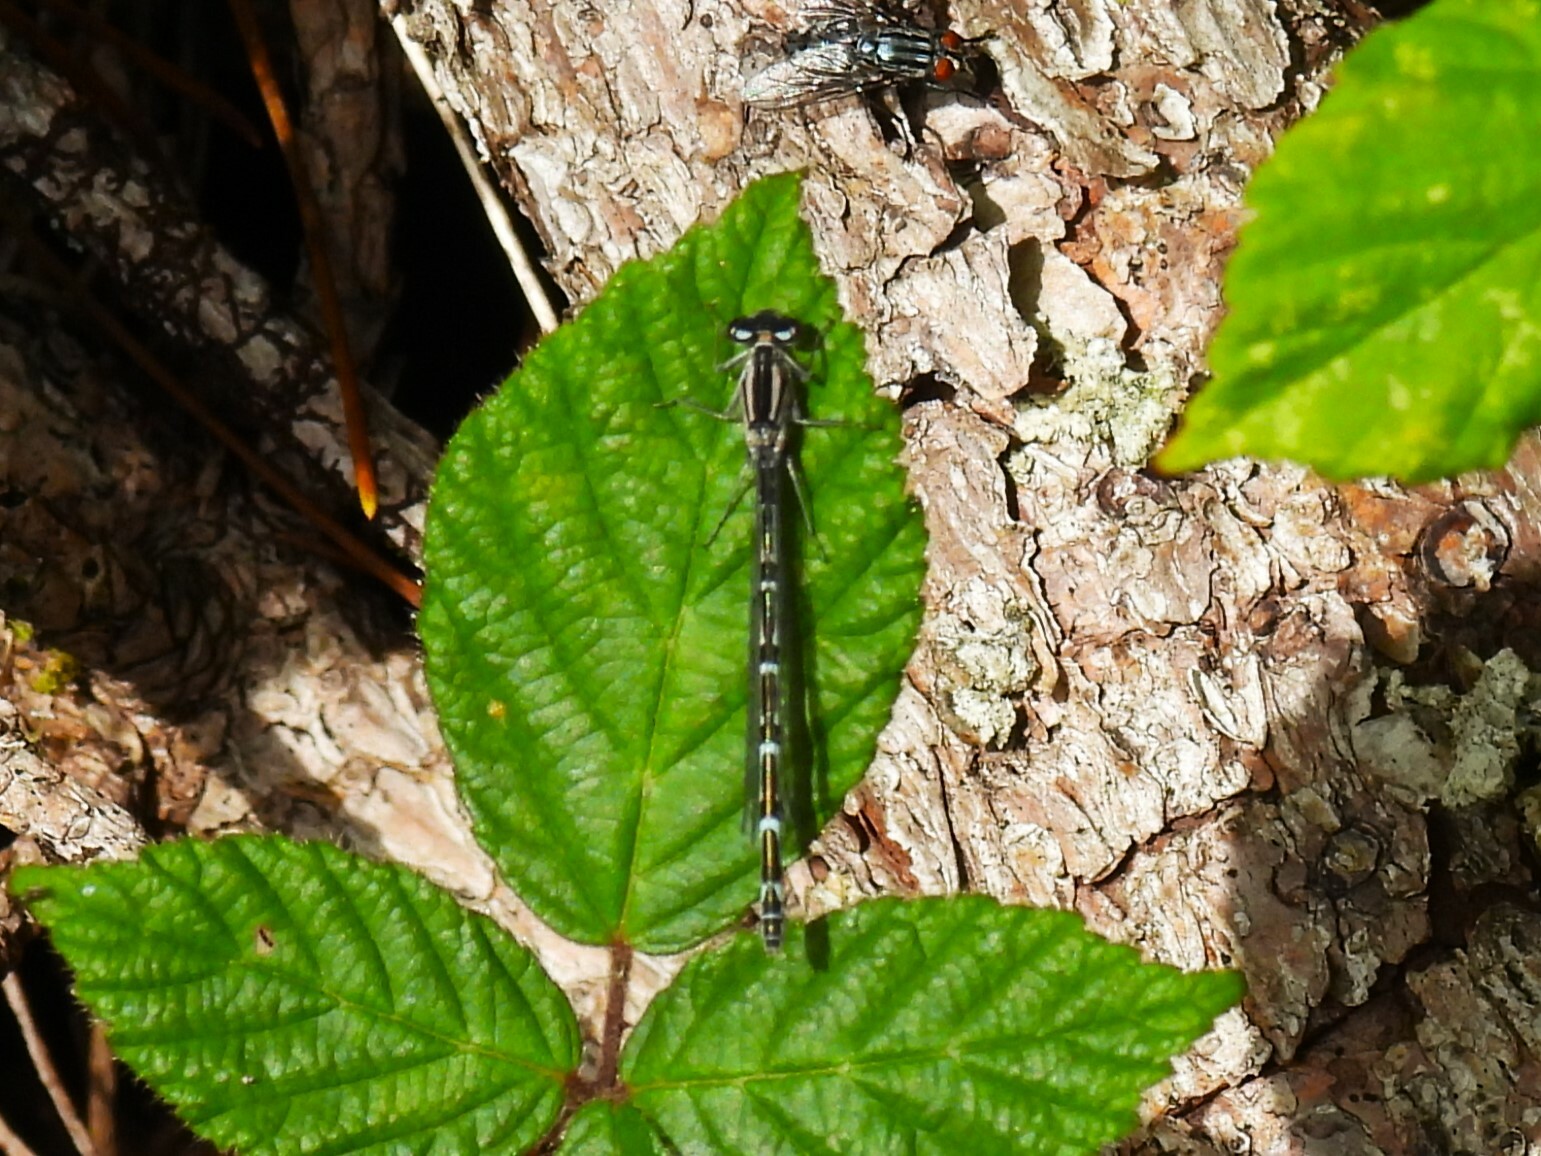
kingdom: Animalia
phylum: Arthropoda
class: Insecta
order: Odonata
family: Coenagrionidae
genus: Enallagma
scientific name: Enallagma cyathigerum
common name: Common blue damselfly
